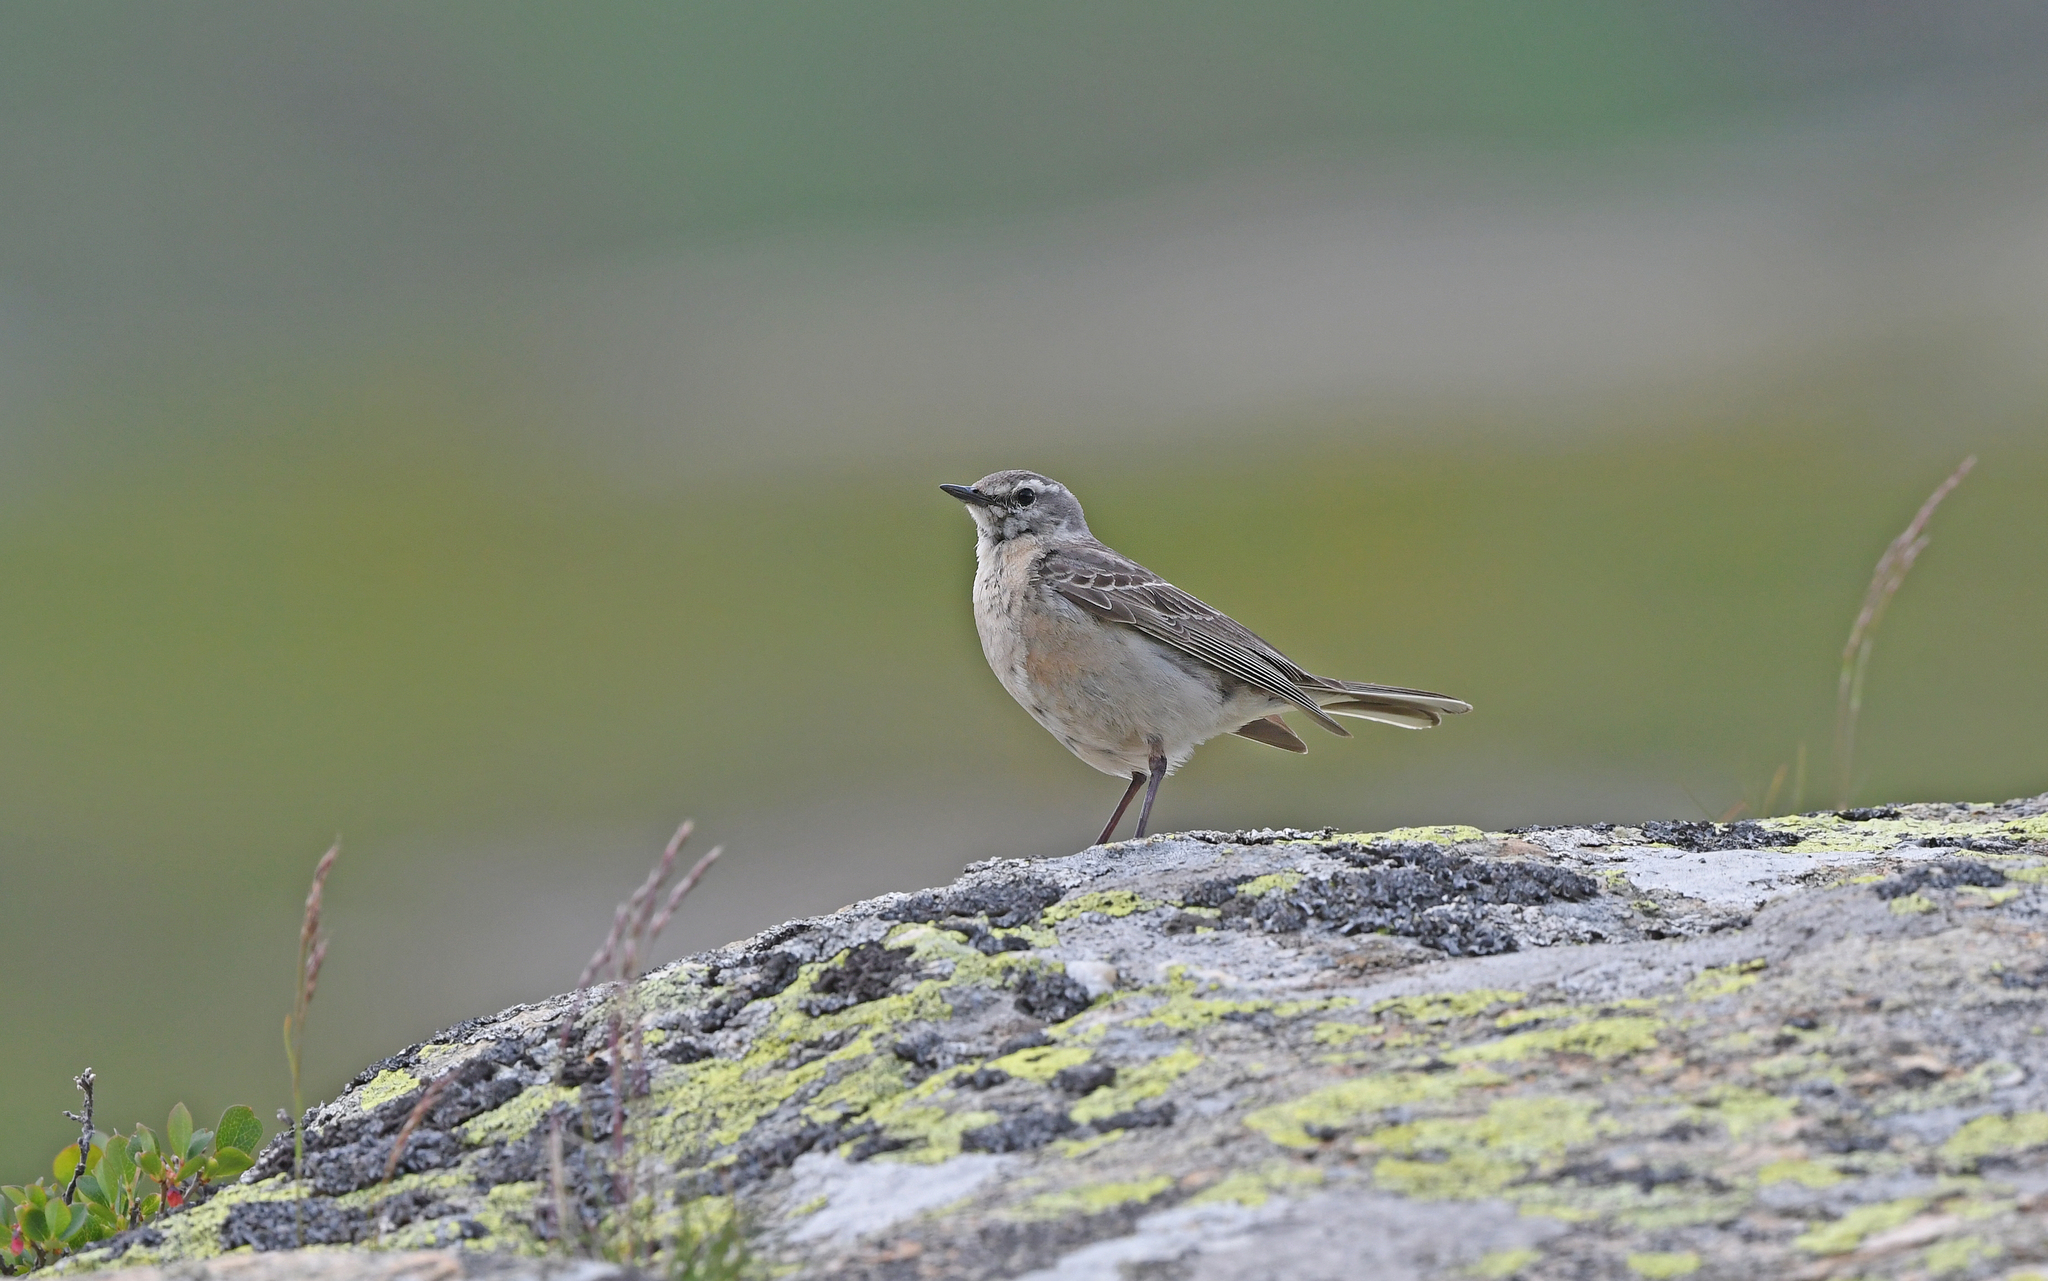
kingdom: Animalia
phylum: Chordata
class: Aves
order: Passeriformes
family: Motacillidae
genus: Anthus
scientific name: Anthus spinoletta
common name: Water pipit
